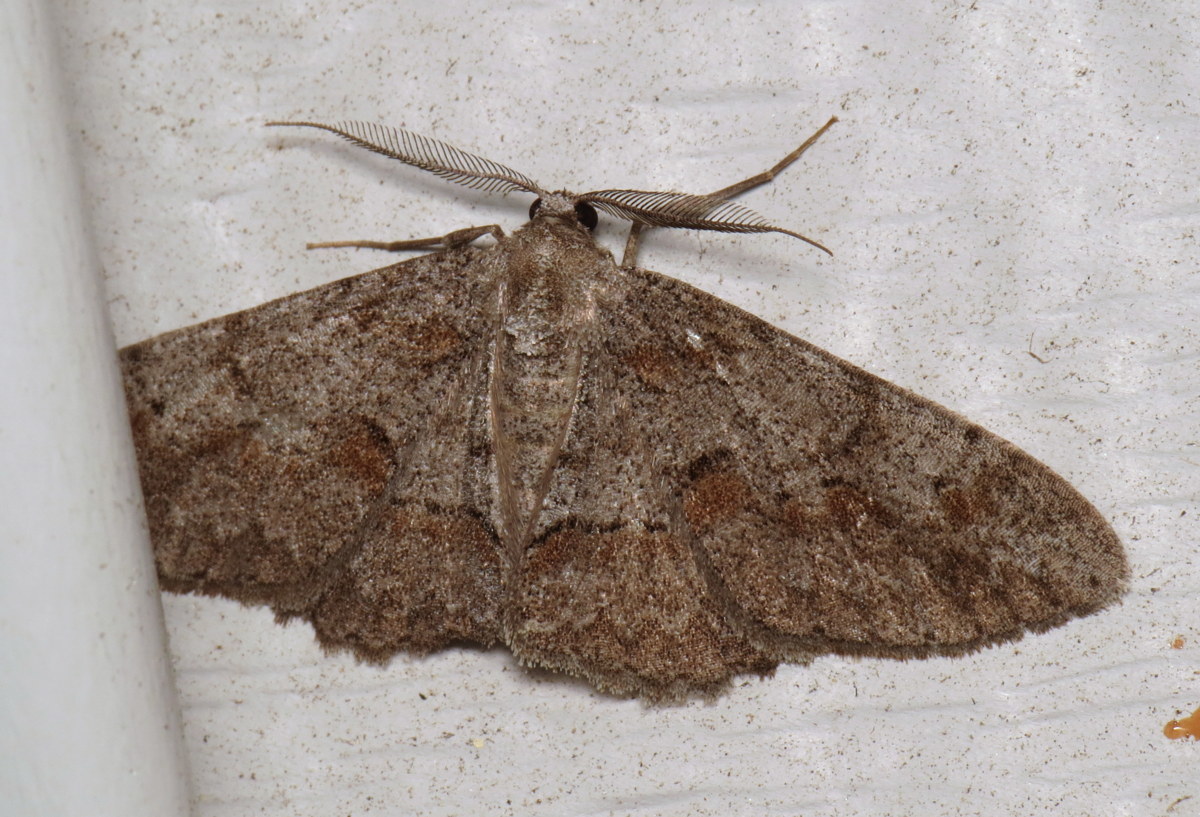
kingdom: Animalia
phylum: Arthropoda
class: Insecta
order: Lepidoptera
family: Geometridae
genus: Iridopsis
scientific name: Iridopsis vellivolata
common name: Large purplish gray
